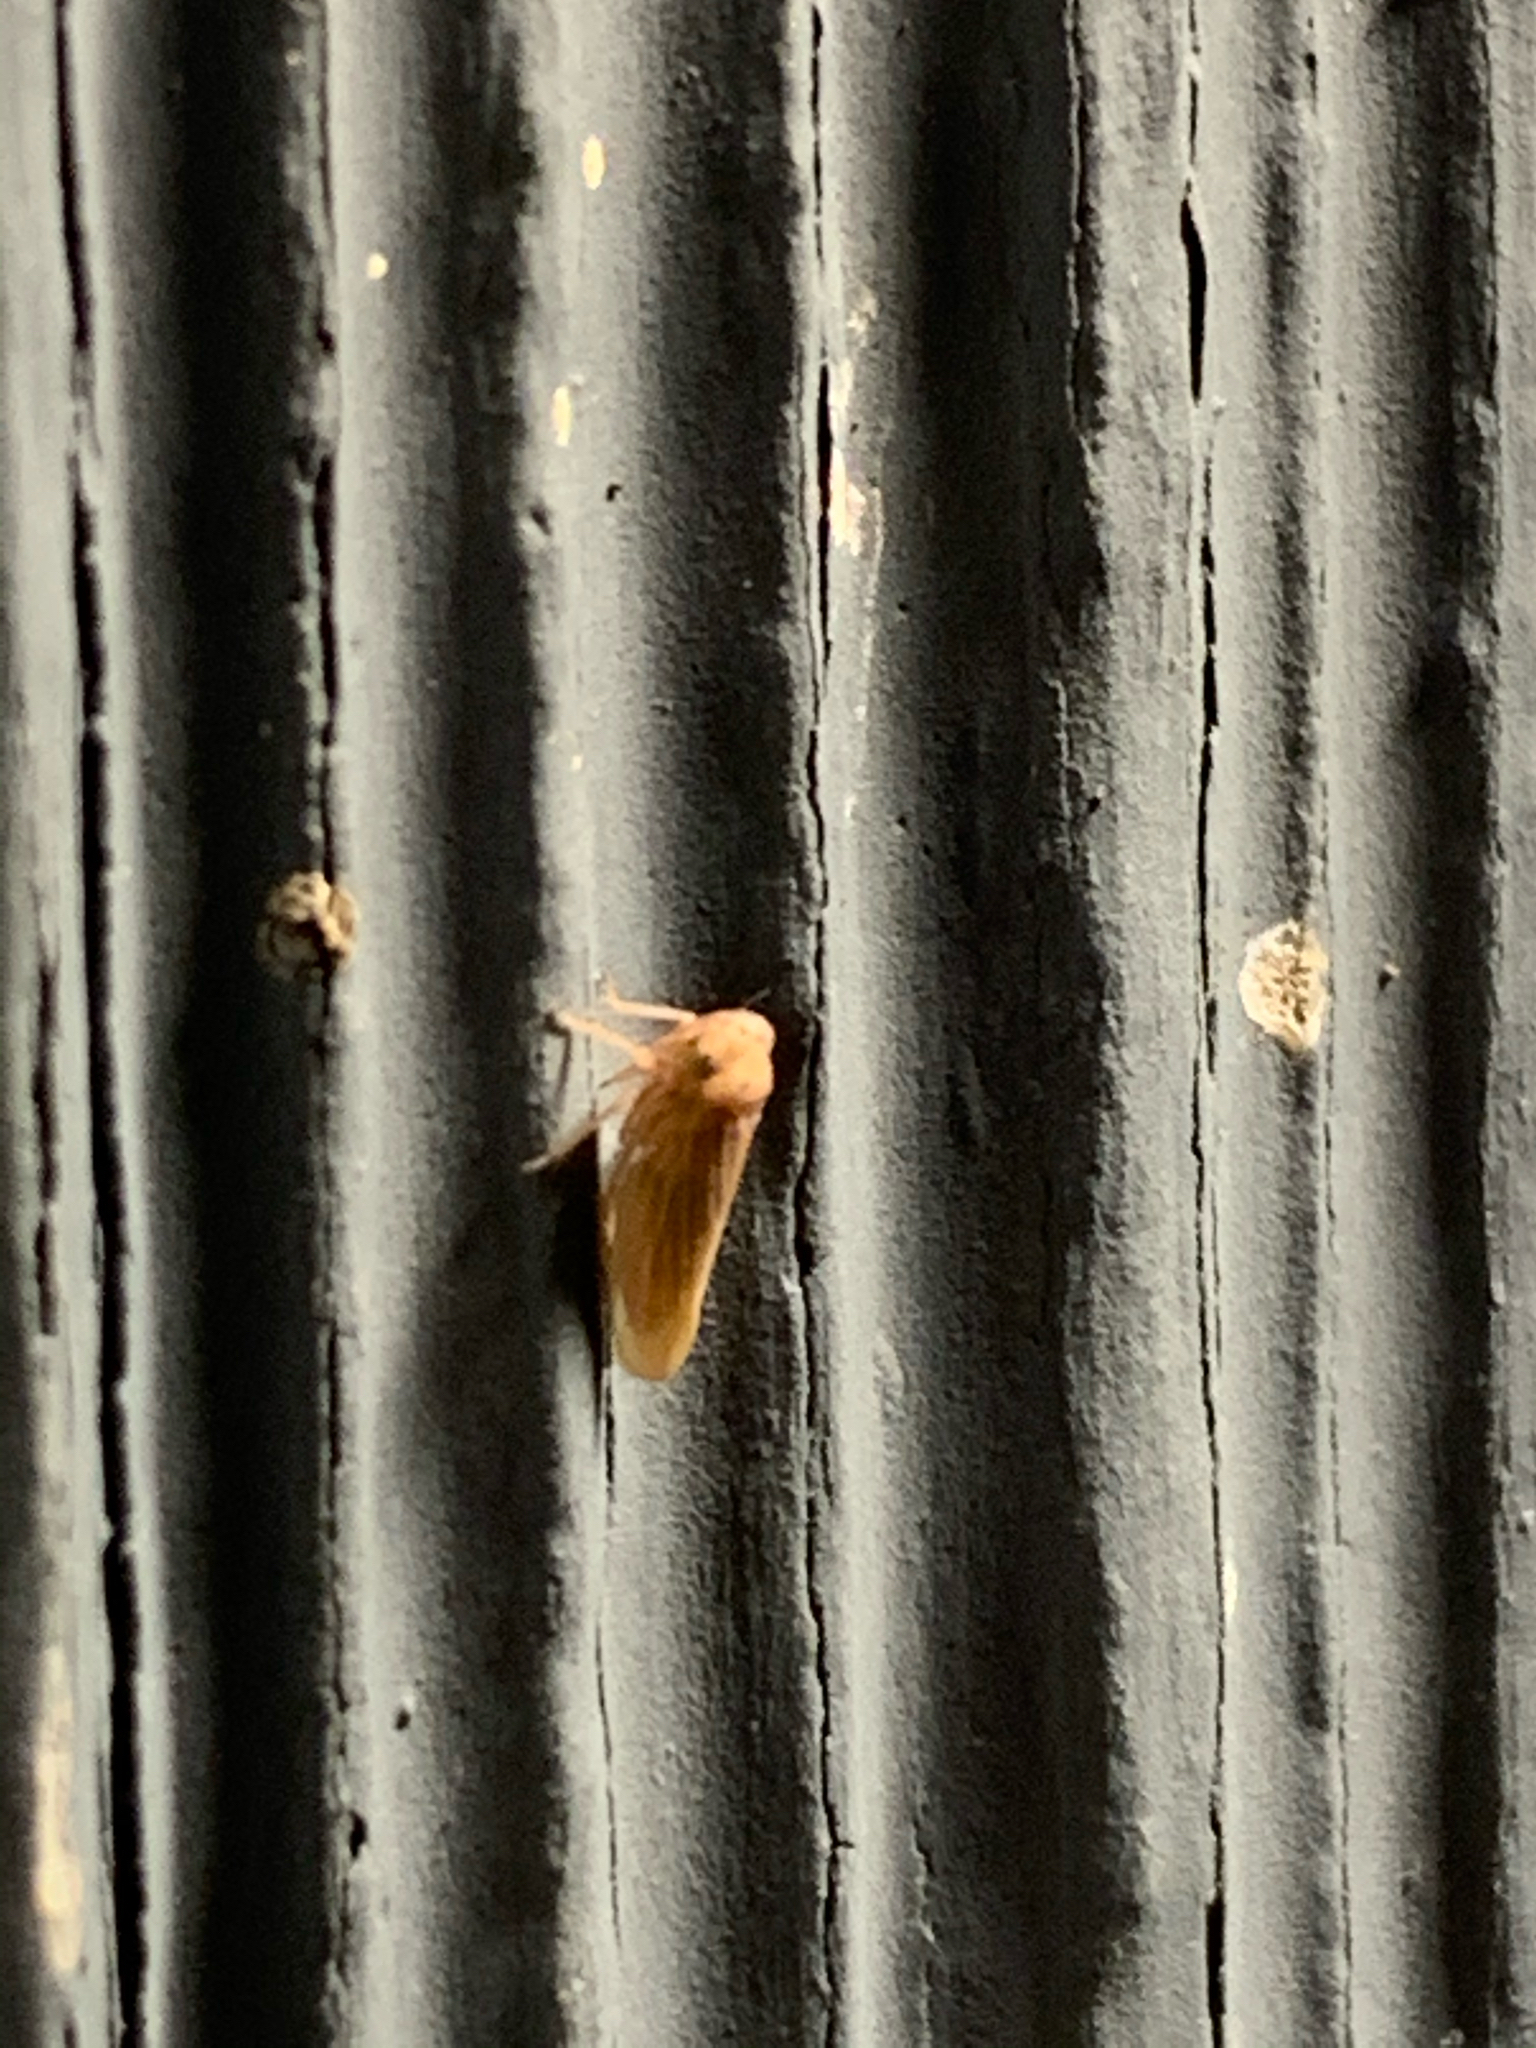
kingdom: Animalia
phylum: Arthropoda
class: Insecta
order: Hemiptera
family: Cicadellidae
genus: Agallia
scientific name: Agallia
